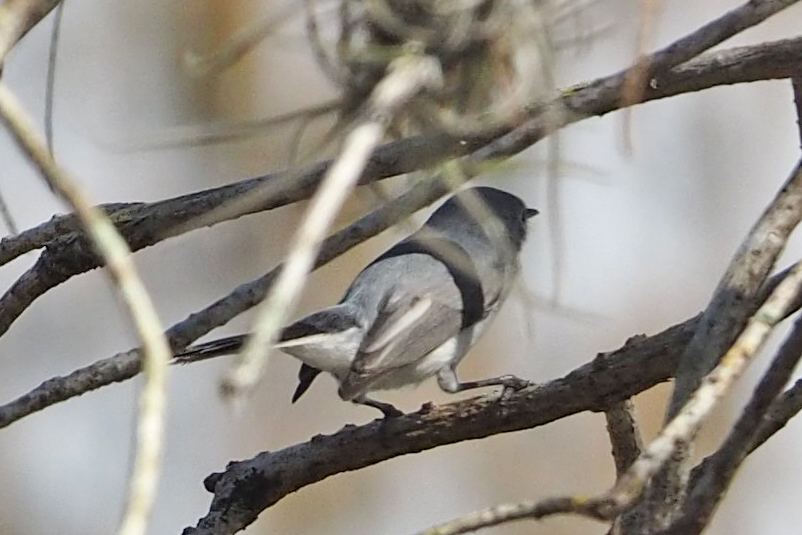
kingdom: Animalia
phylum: Chordata
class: Aves
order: Passeriformes
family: Polioptilidae
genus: Polioptila
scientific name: Polioptila caerulea
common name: Blue-gray gnatcatcher
